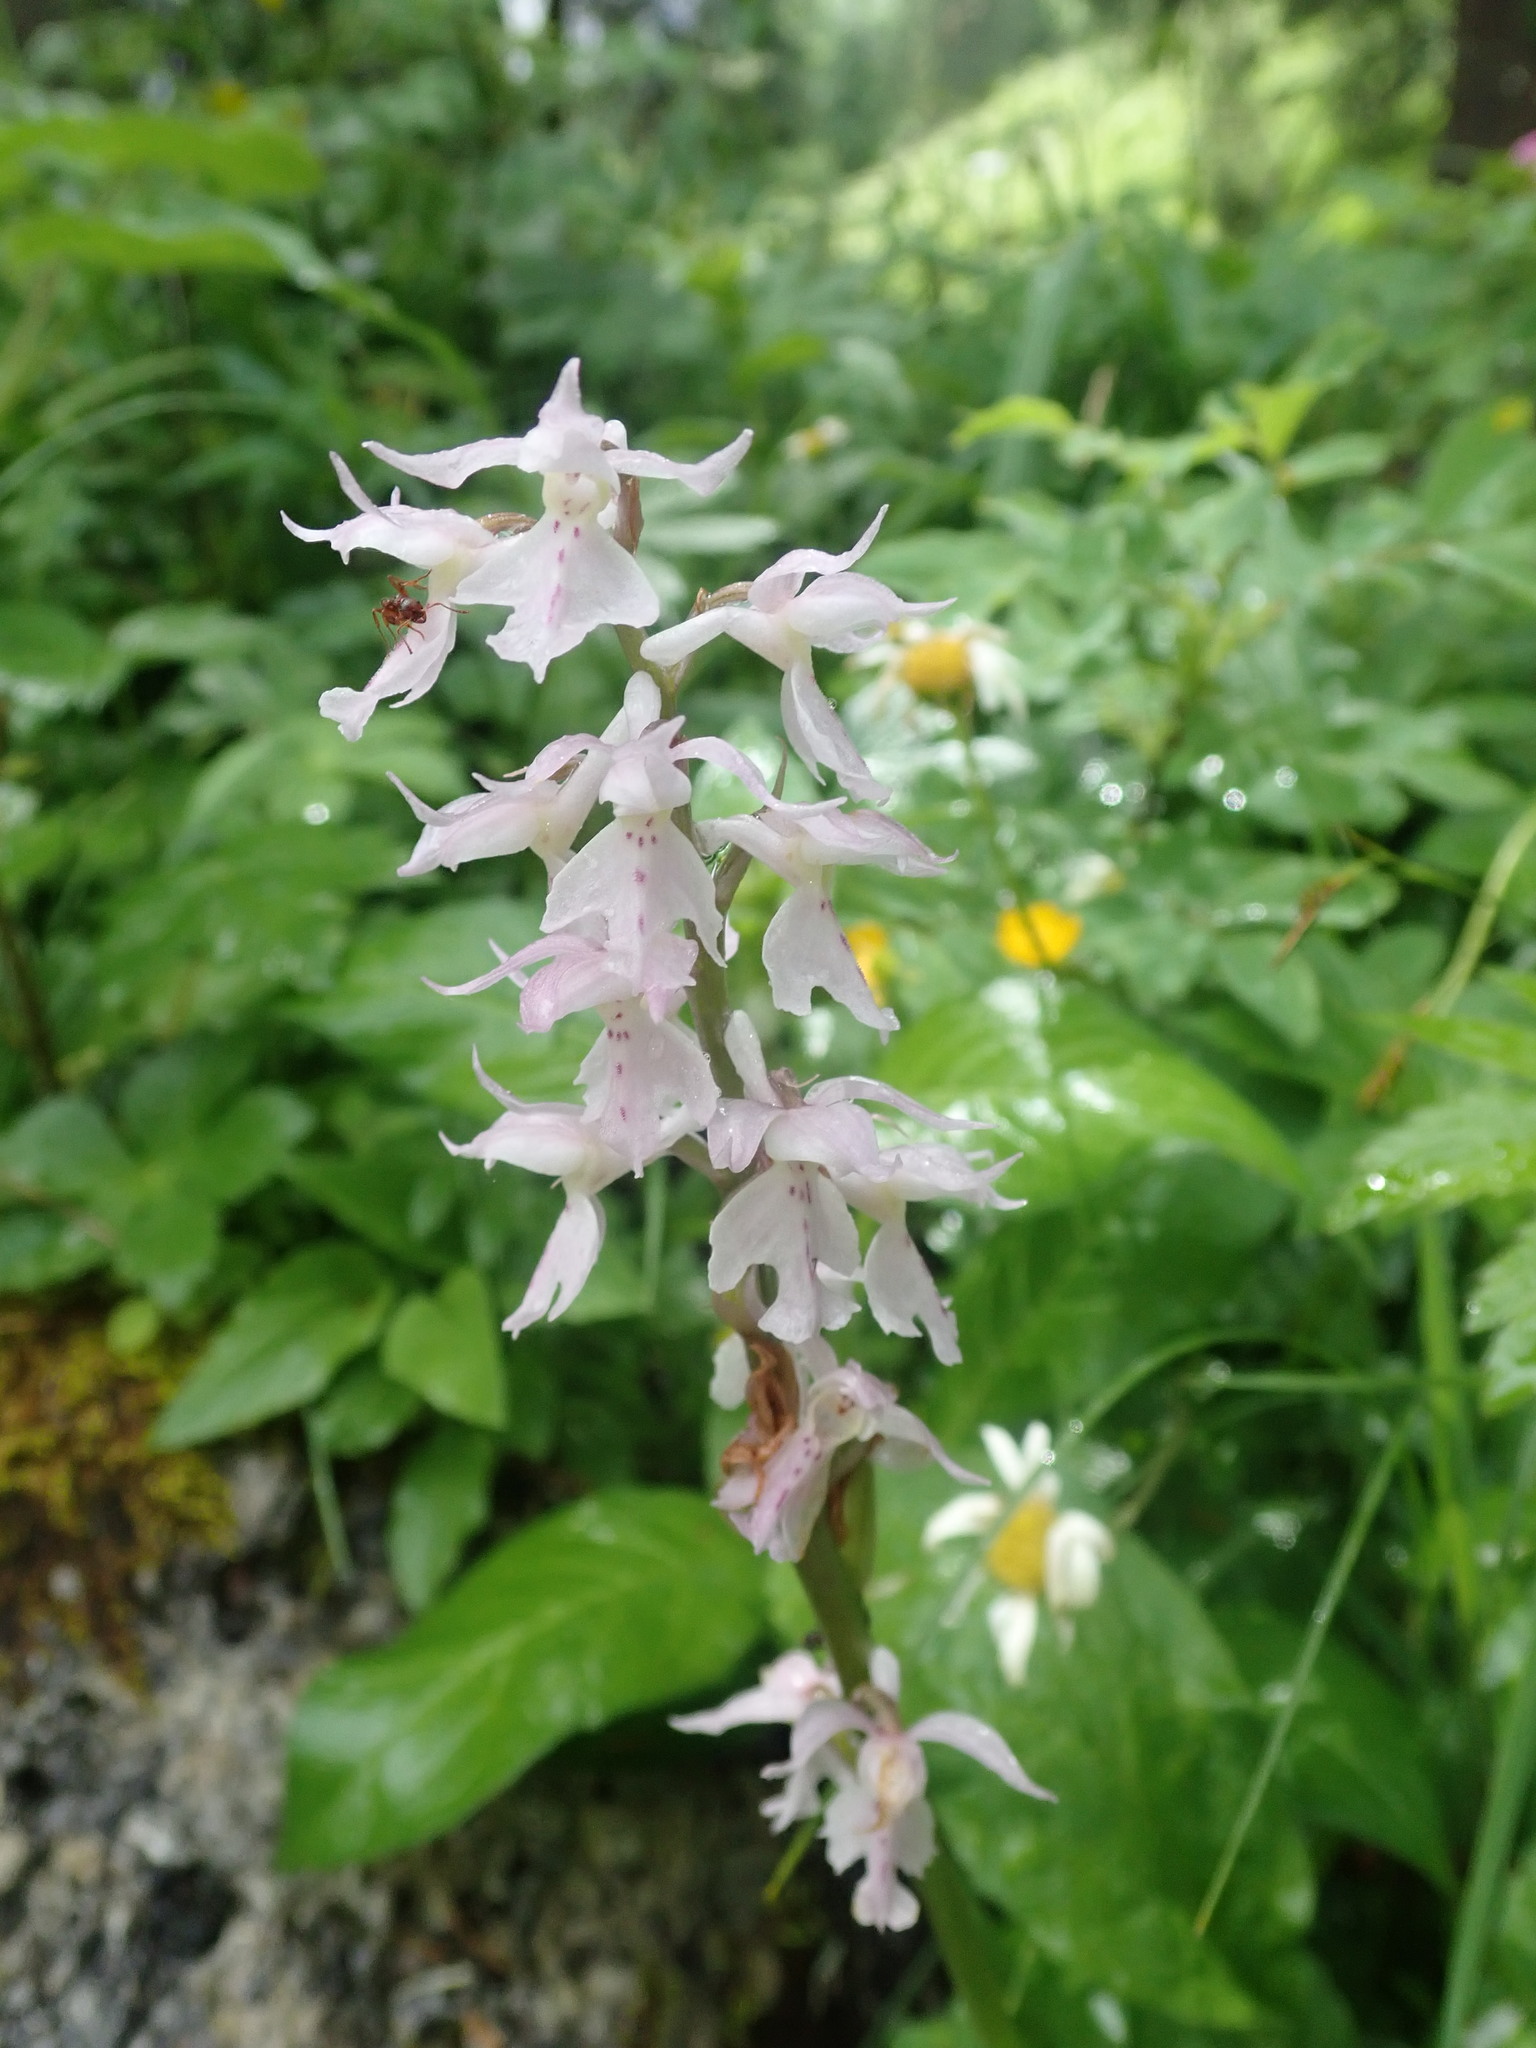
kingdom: Plantae
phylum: Tracheophyta
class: Liliopsida
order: Asparagales
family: Orchidaceae
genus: Orchis
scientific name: Orchis mascula
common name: Early-purple orchid
